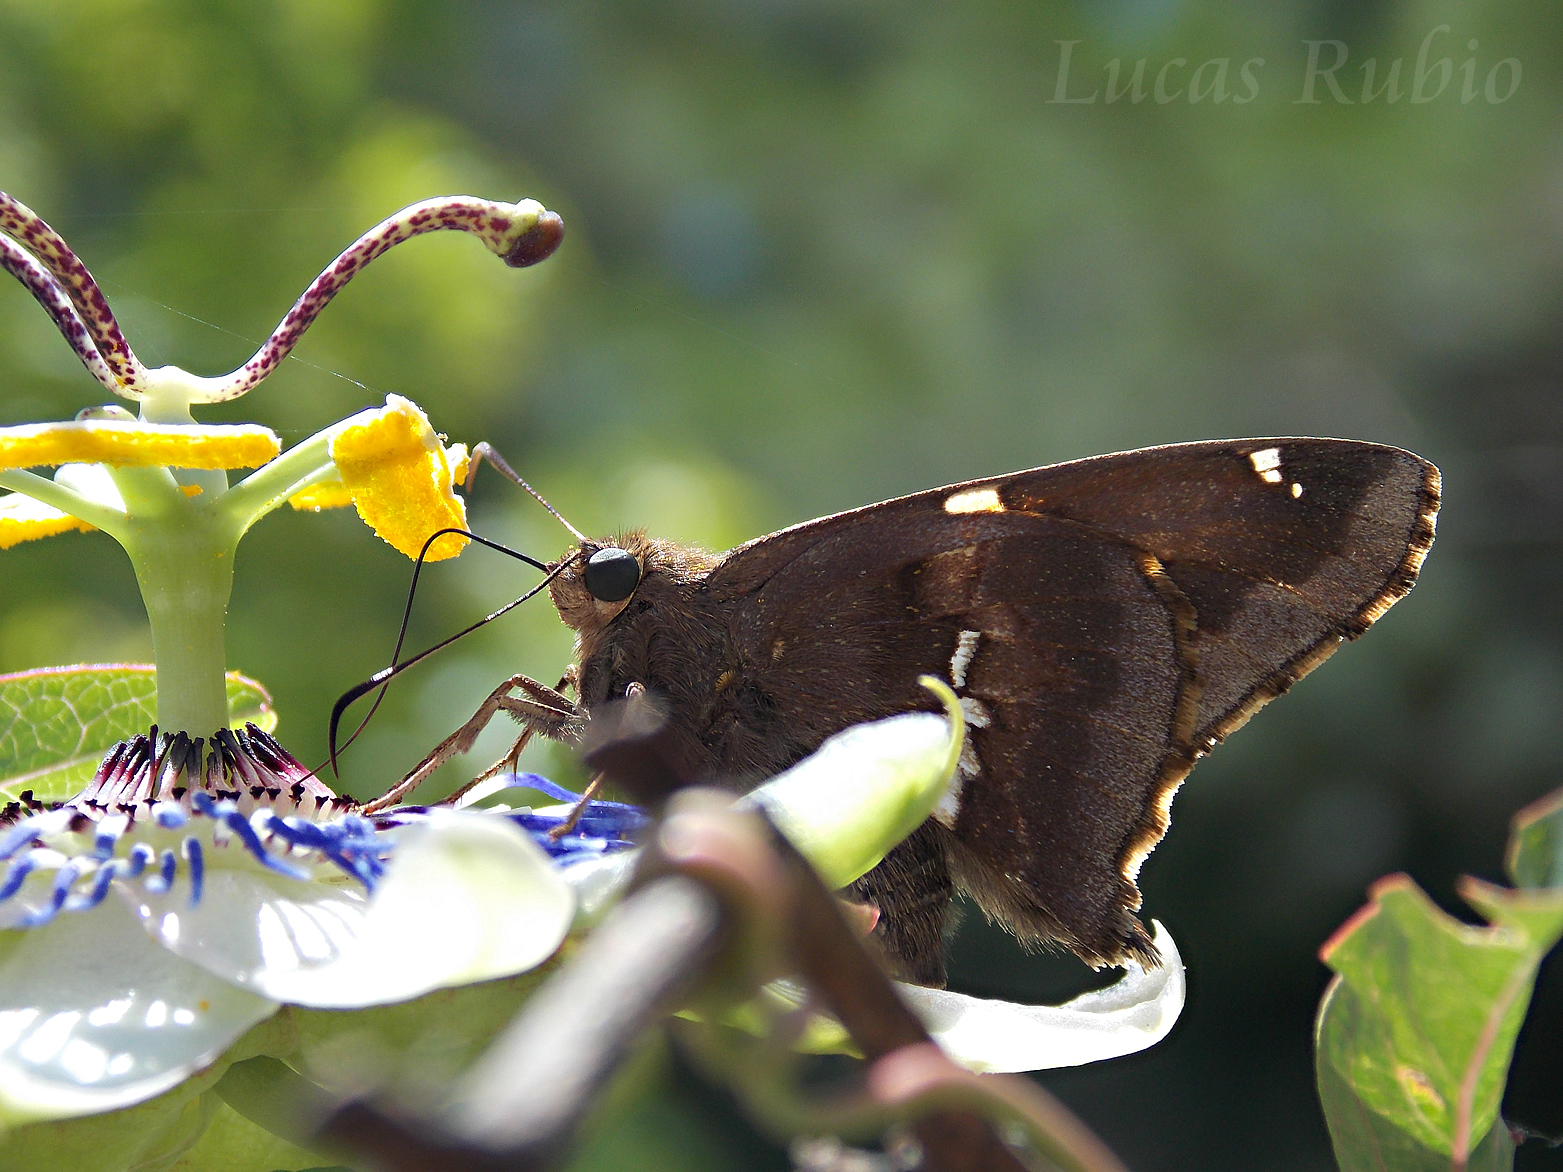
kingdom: Animalia
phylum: Arthropoda
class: Insecta
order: Lepidoptera
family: Hesperiidae
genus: Epargyreus
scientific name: Epargyreus tmolis
